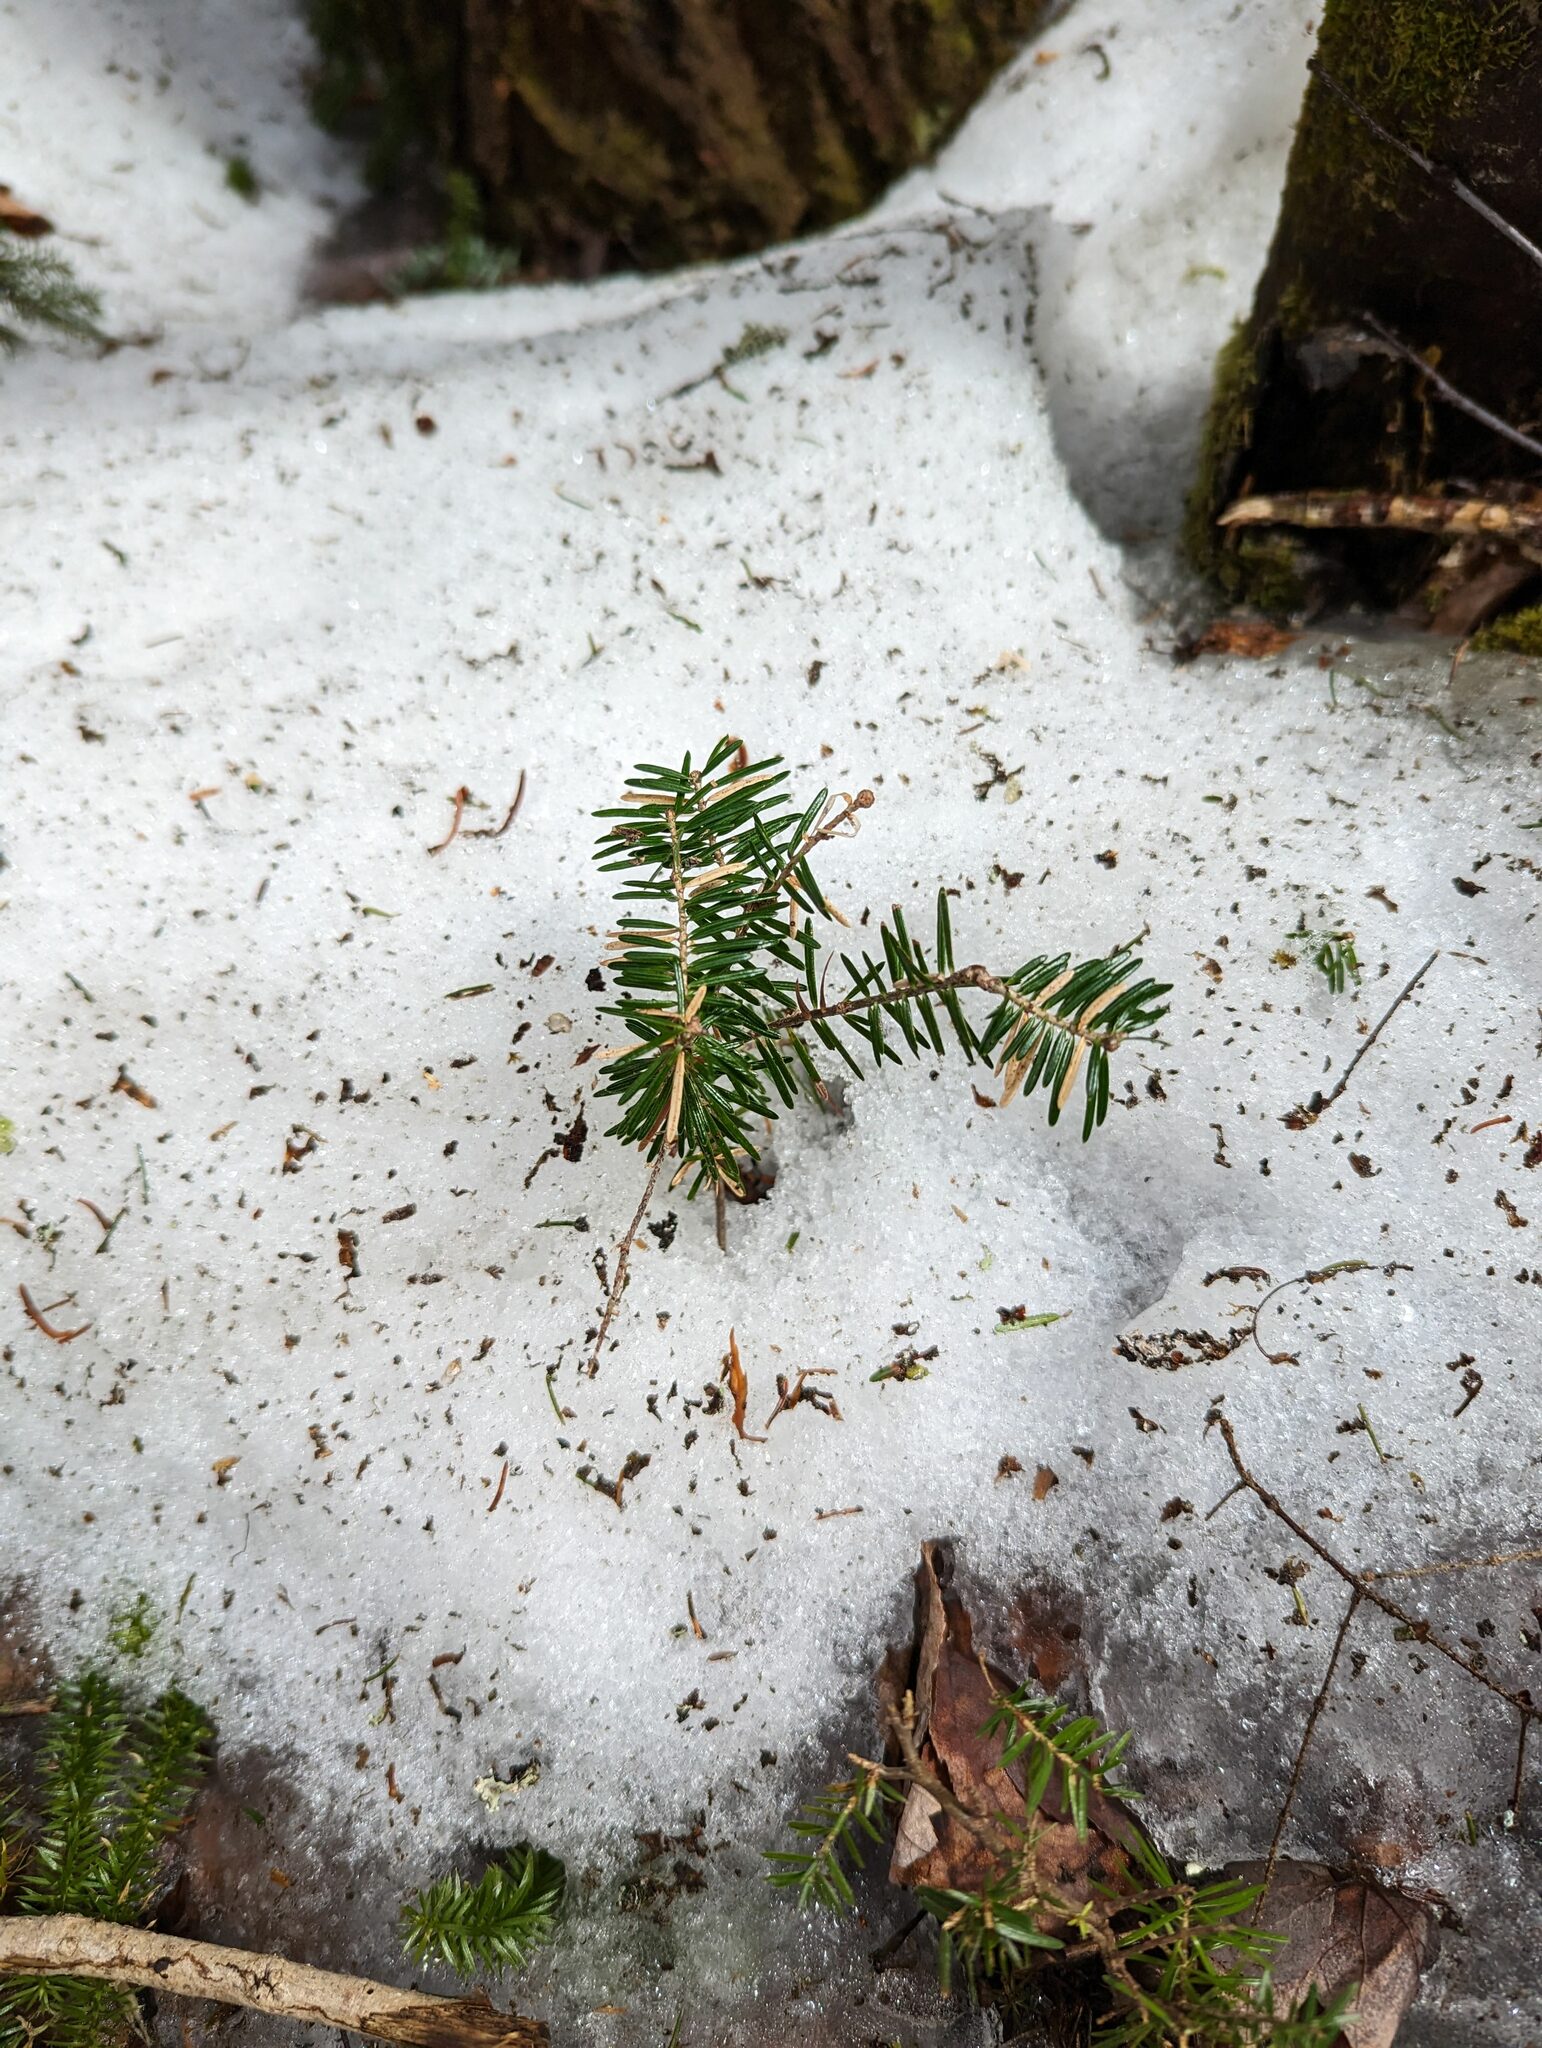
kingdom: Plantae
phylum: Tracheophyta
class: Pinopsida
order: Pinales
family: Pinaceae
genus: Abies
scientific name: Abies balsamea
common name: Balsam fir
